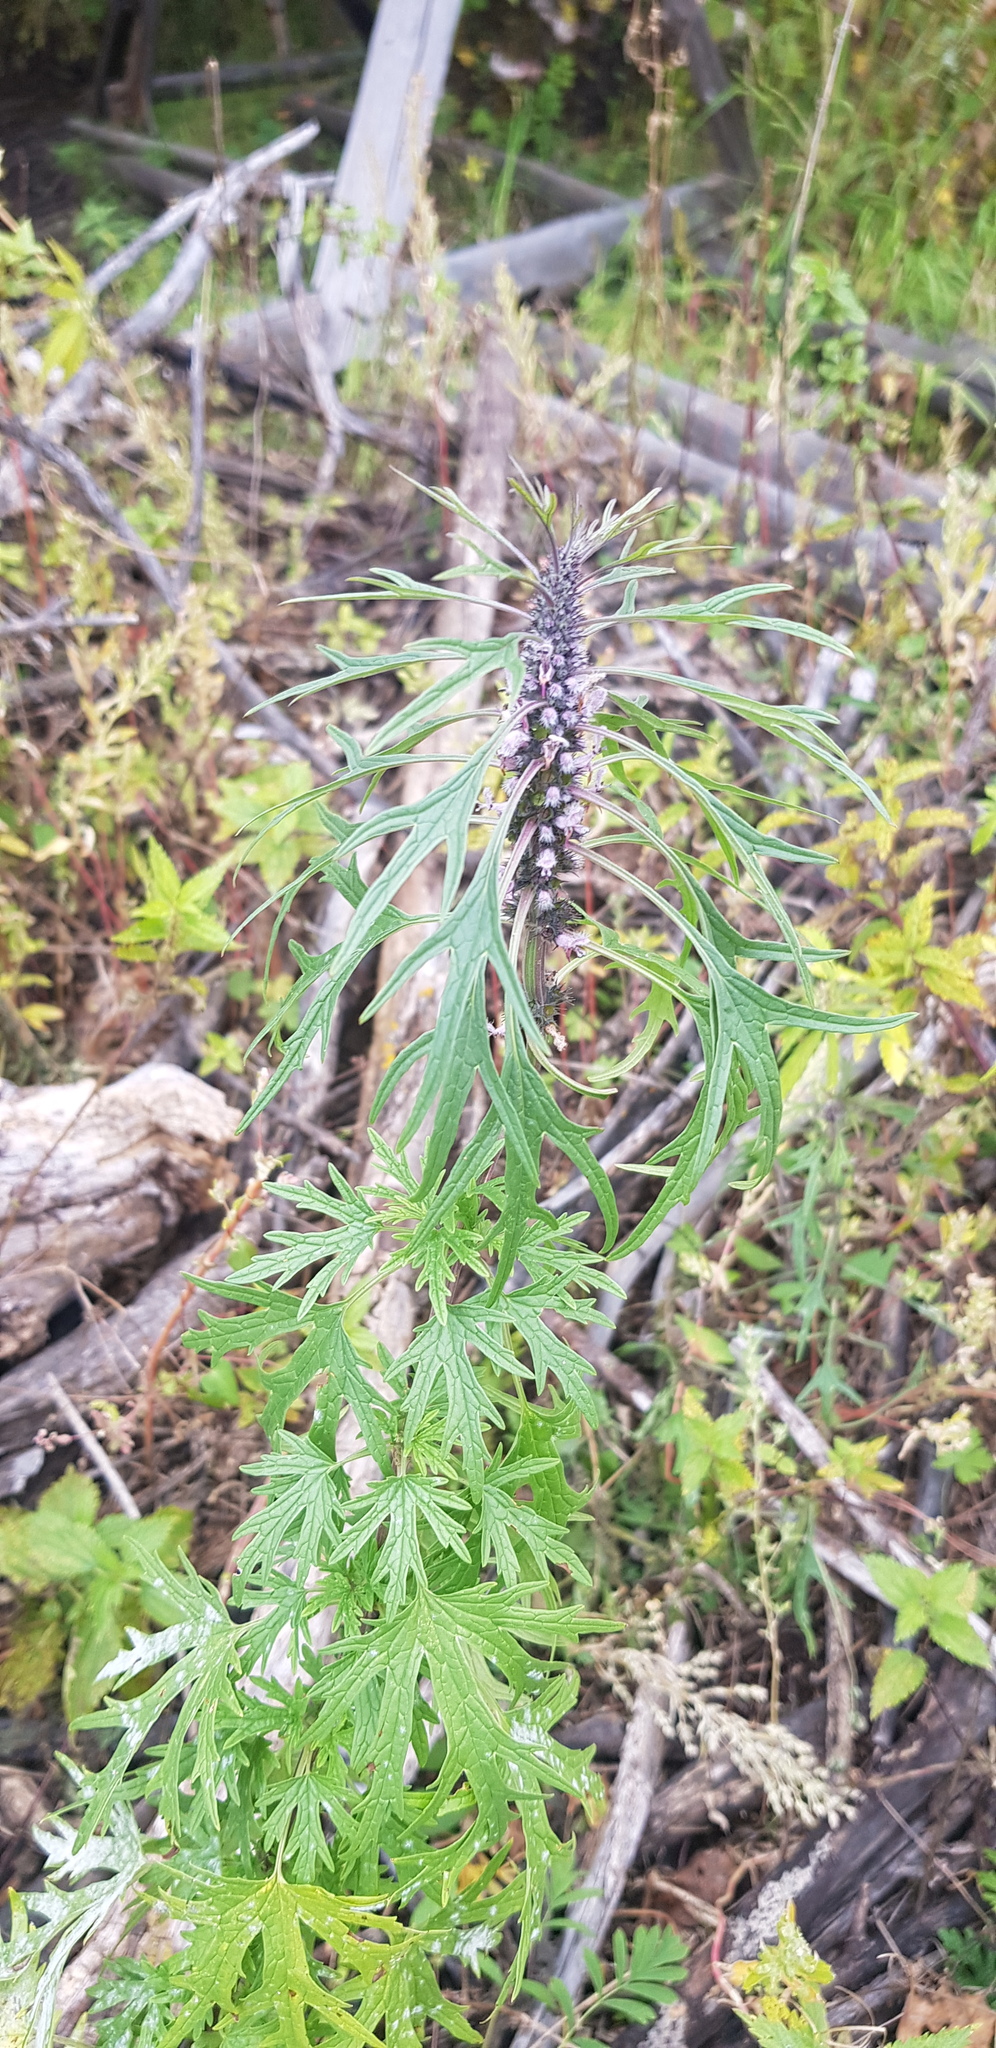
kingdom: Plantae
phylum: Tracheophyta
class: Magnoliopsida
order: Lamiales
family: Lamiaceae
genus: Leonurus
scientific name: Leonurus deminutus
